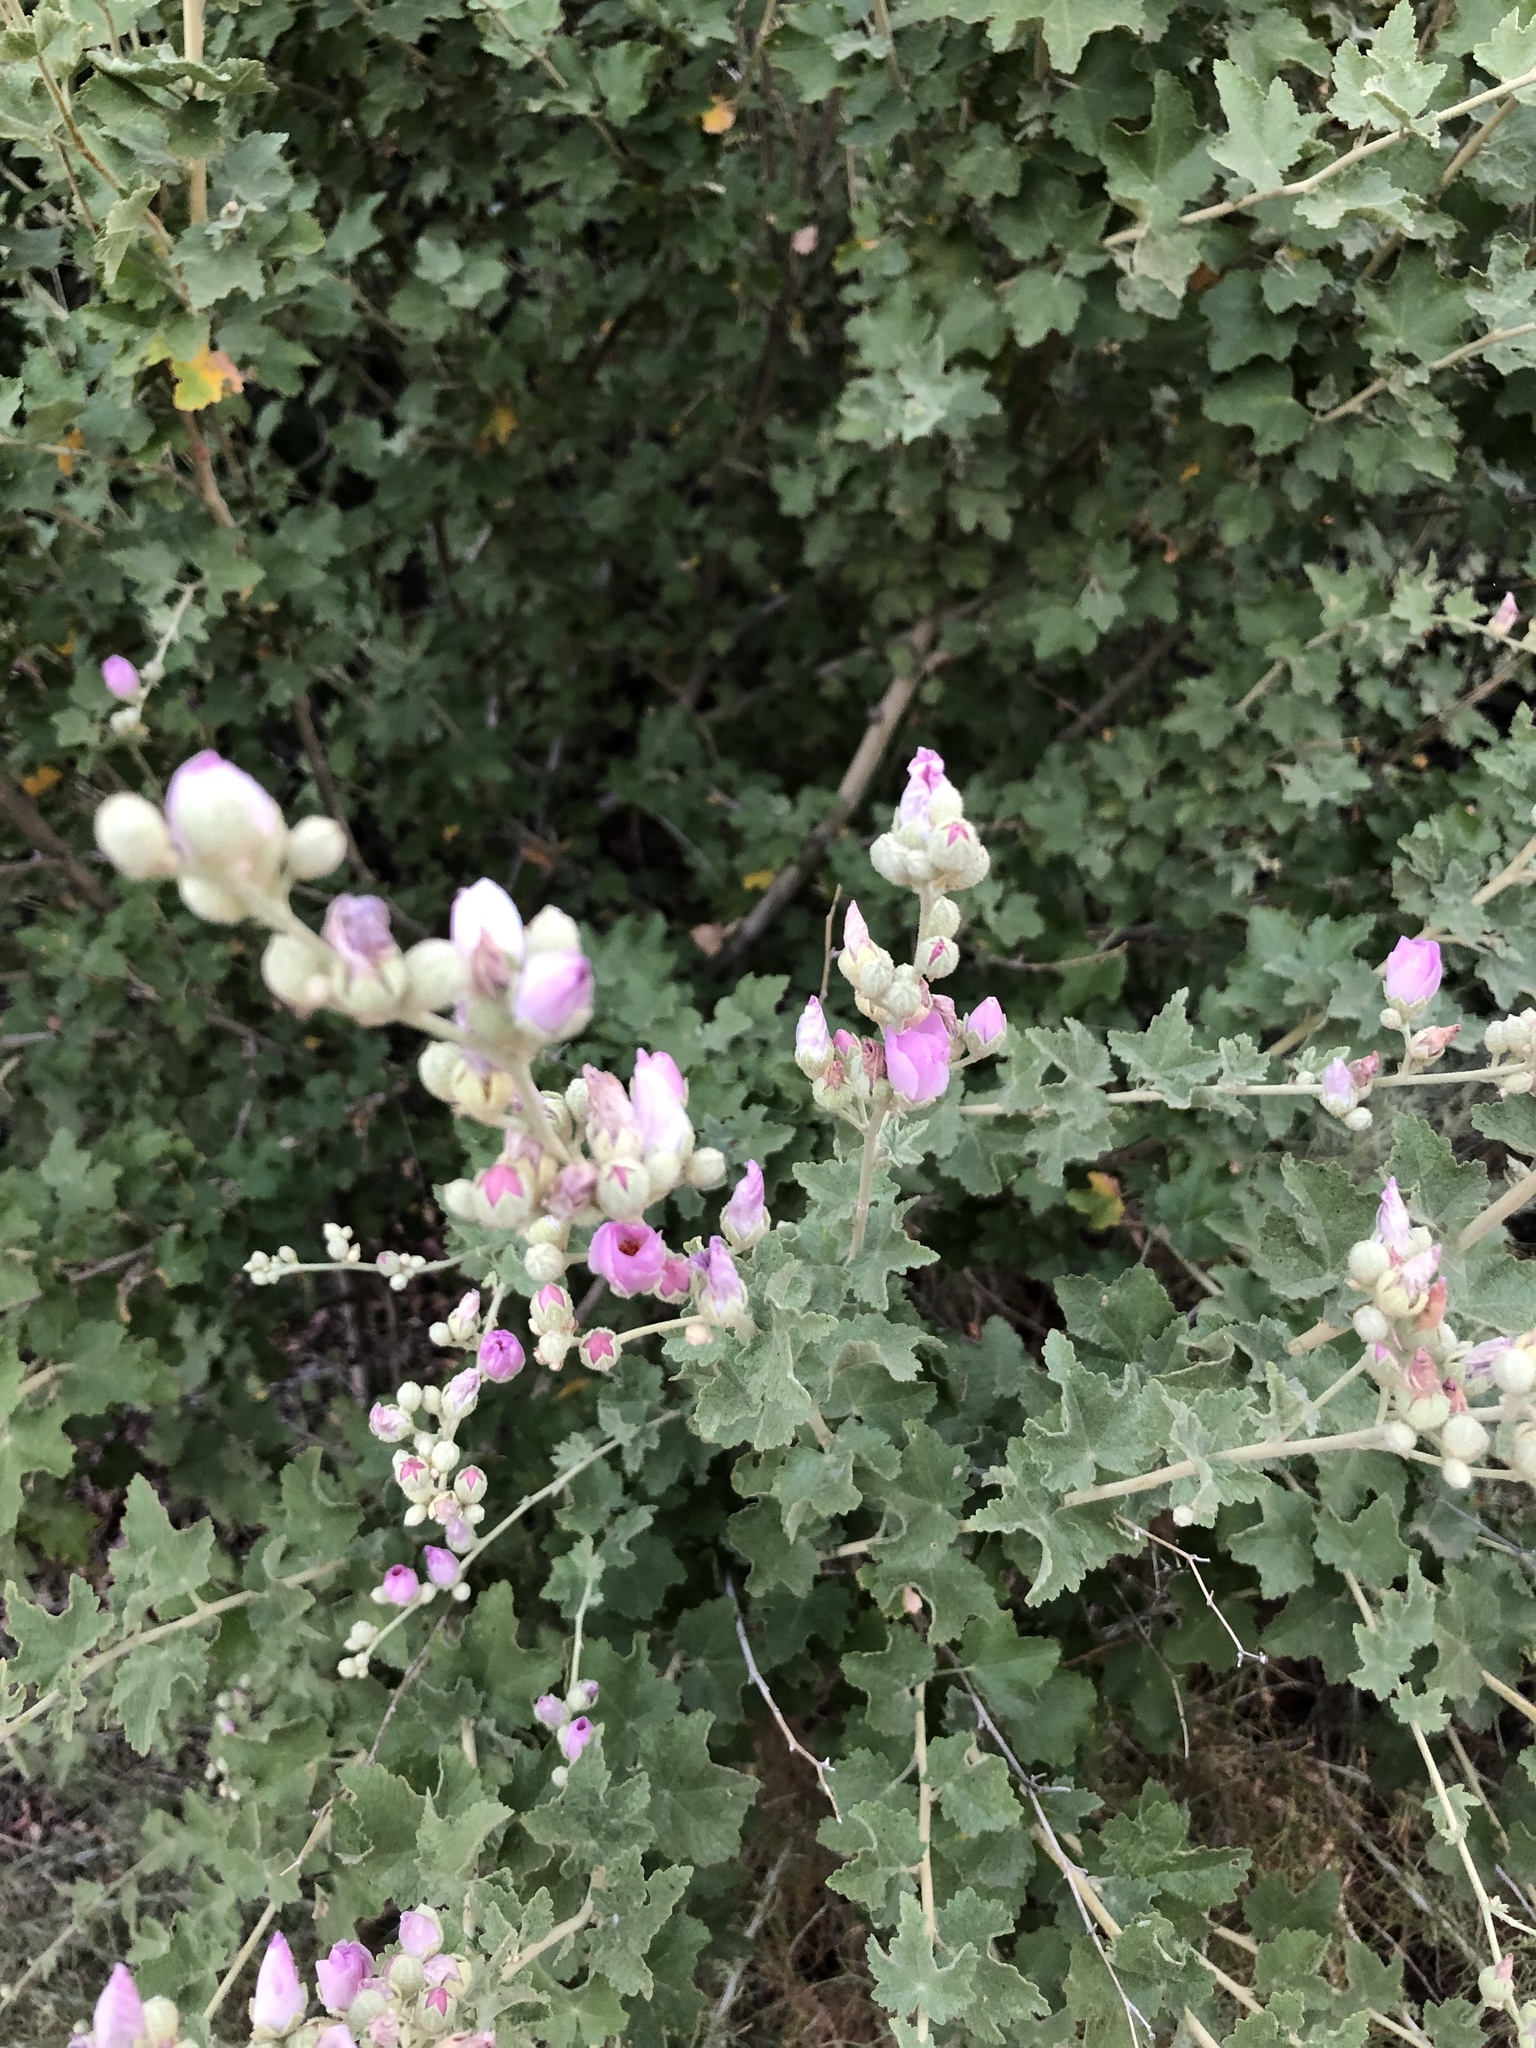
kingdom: Plantae
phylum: Tracheophyta
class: Magnoliopsida
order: Malvales
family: Malvaceae
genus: Malacothamnus
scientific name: Malacothamnus fasciculatus
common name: Sant cruz island bush-mallow
